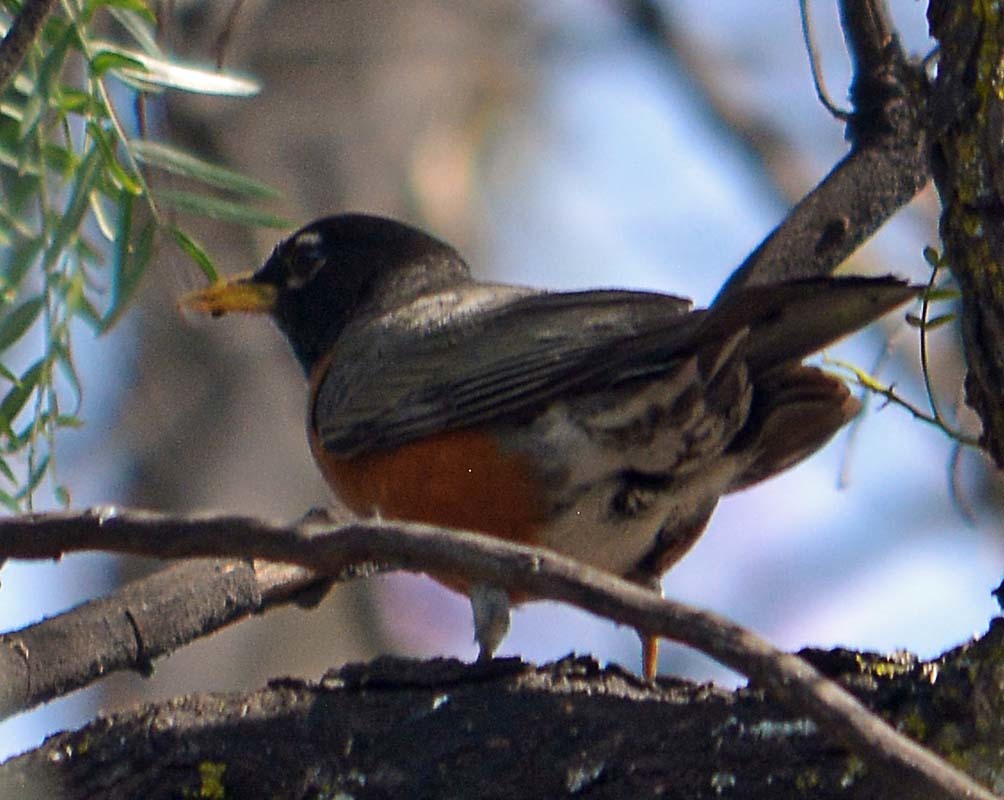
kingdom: Animalia
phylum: Chordata
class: Aves
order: Passeriformes
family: Turdidae
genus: Turdus
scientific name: Turdus migratorius
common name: American robin
